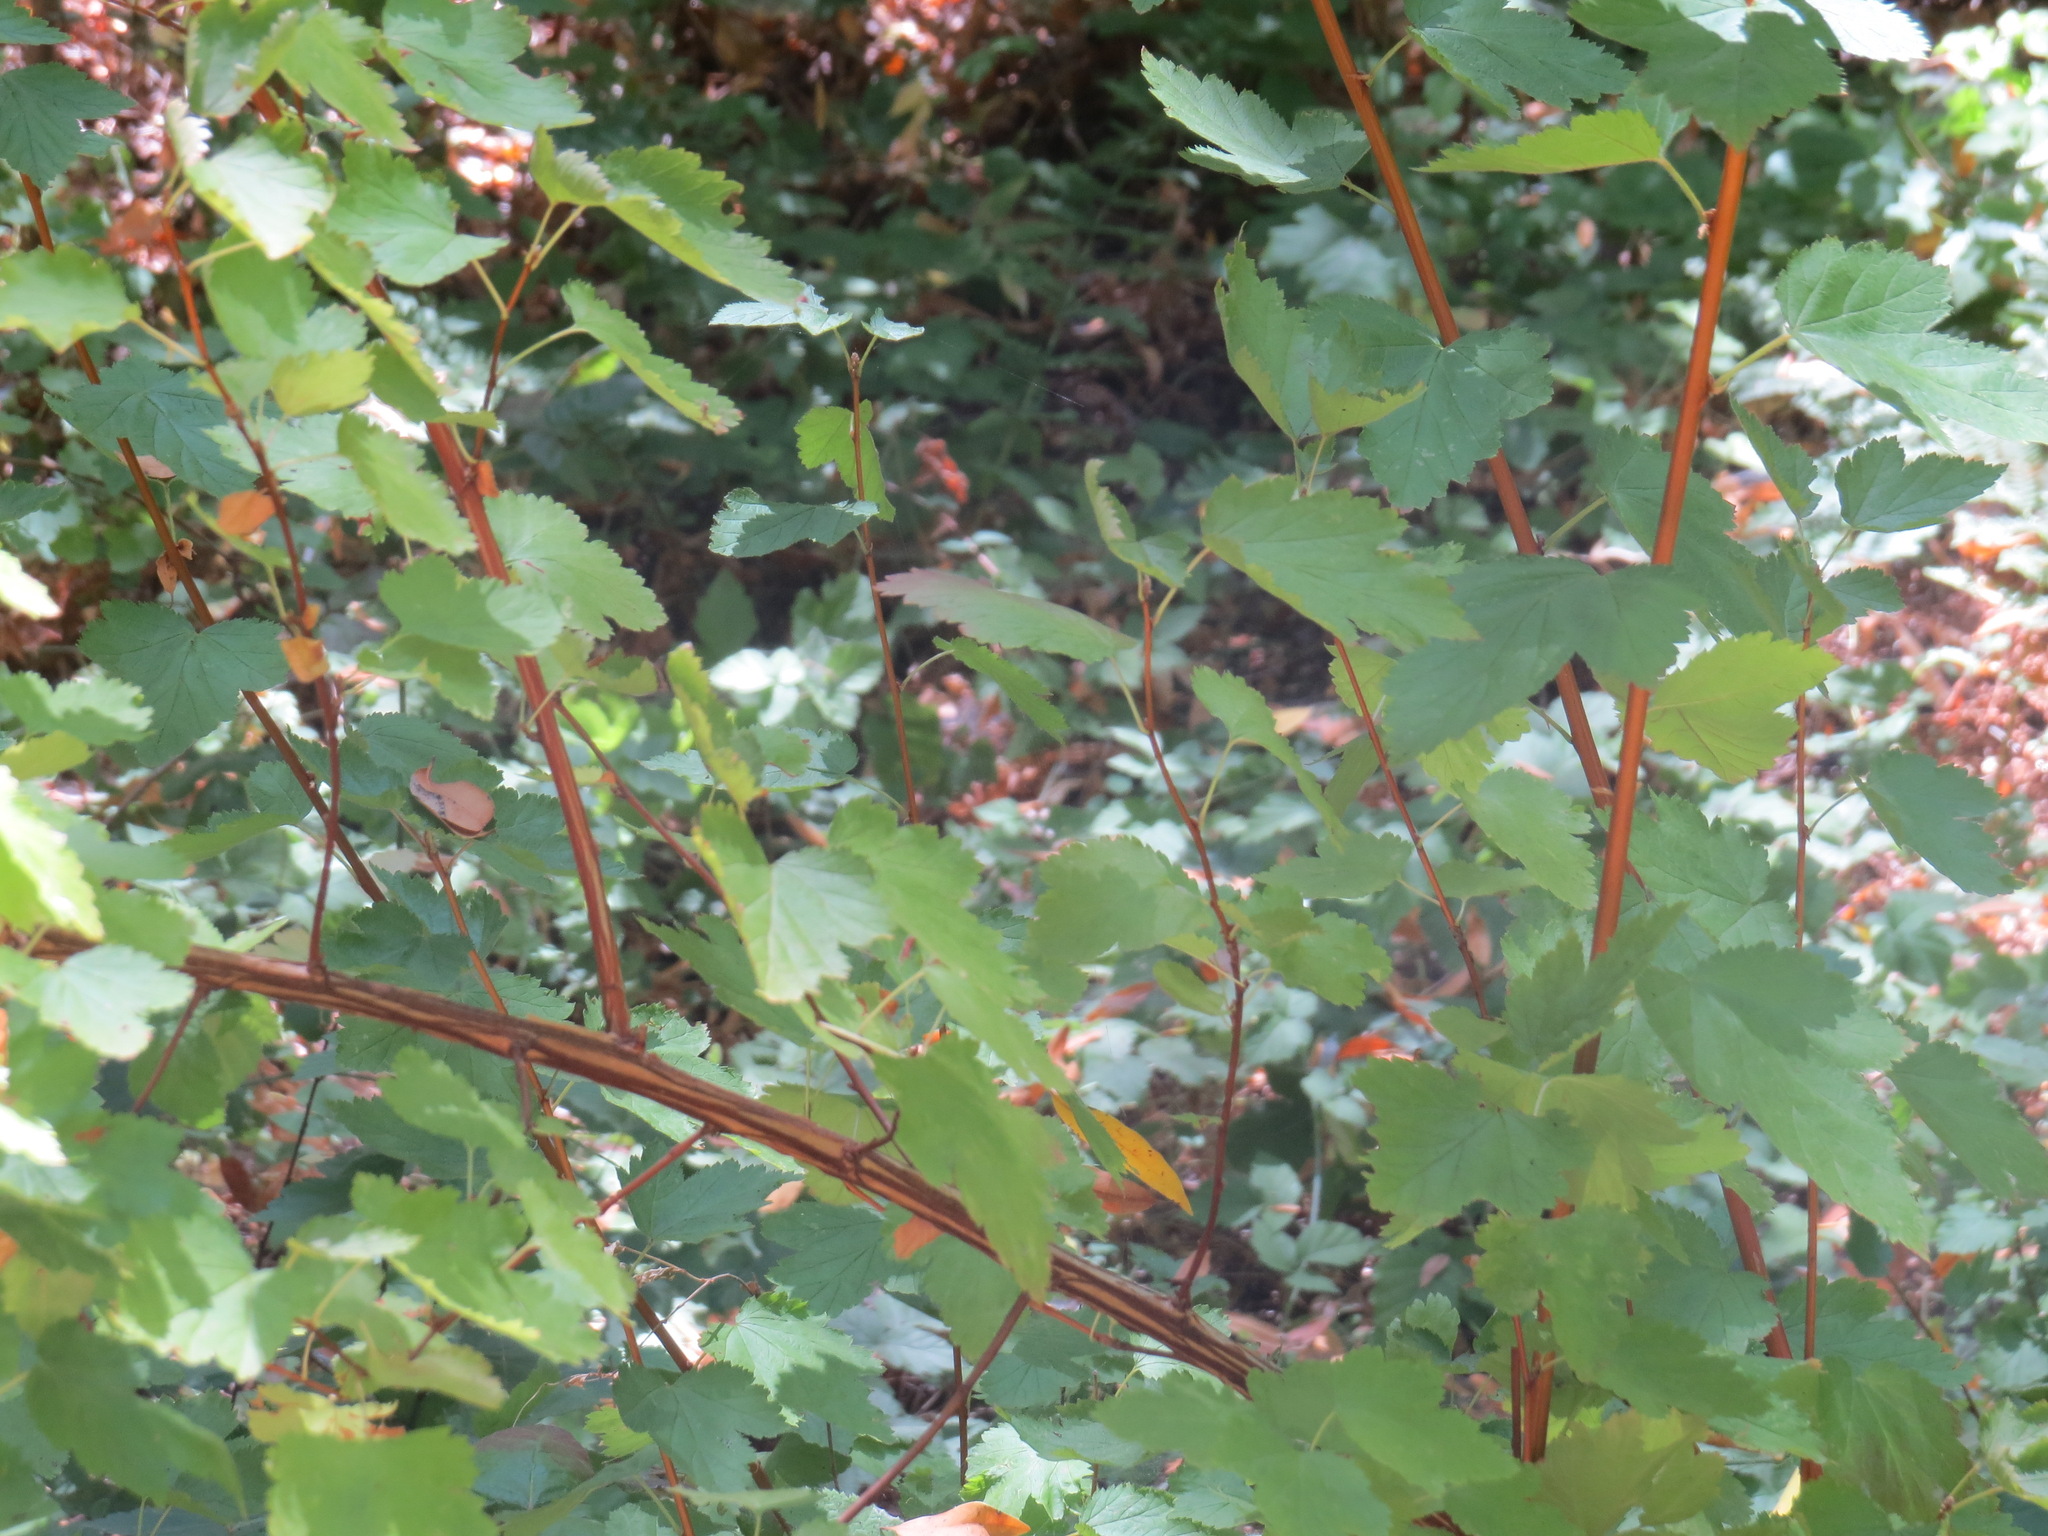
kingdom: Plantae
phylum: Tracheophyta
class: Magnoliopsida
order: Rosales
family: Rosaceae
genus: Physocarpus
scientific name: Physocarpus capitatus
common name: Pacific ninebark
